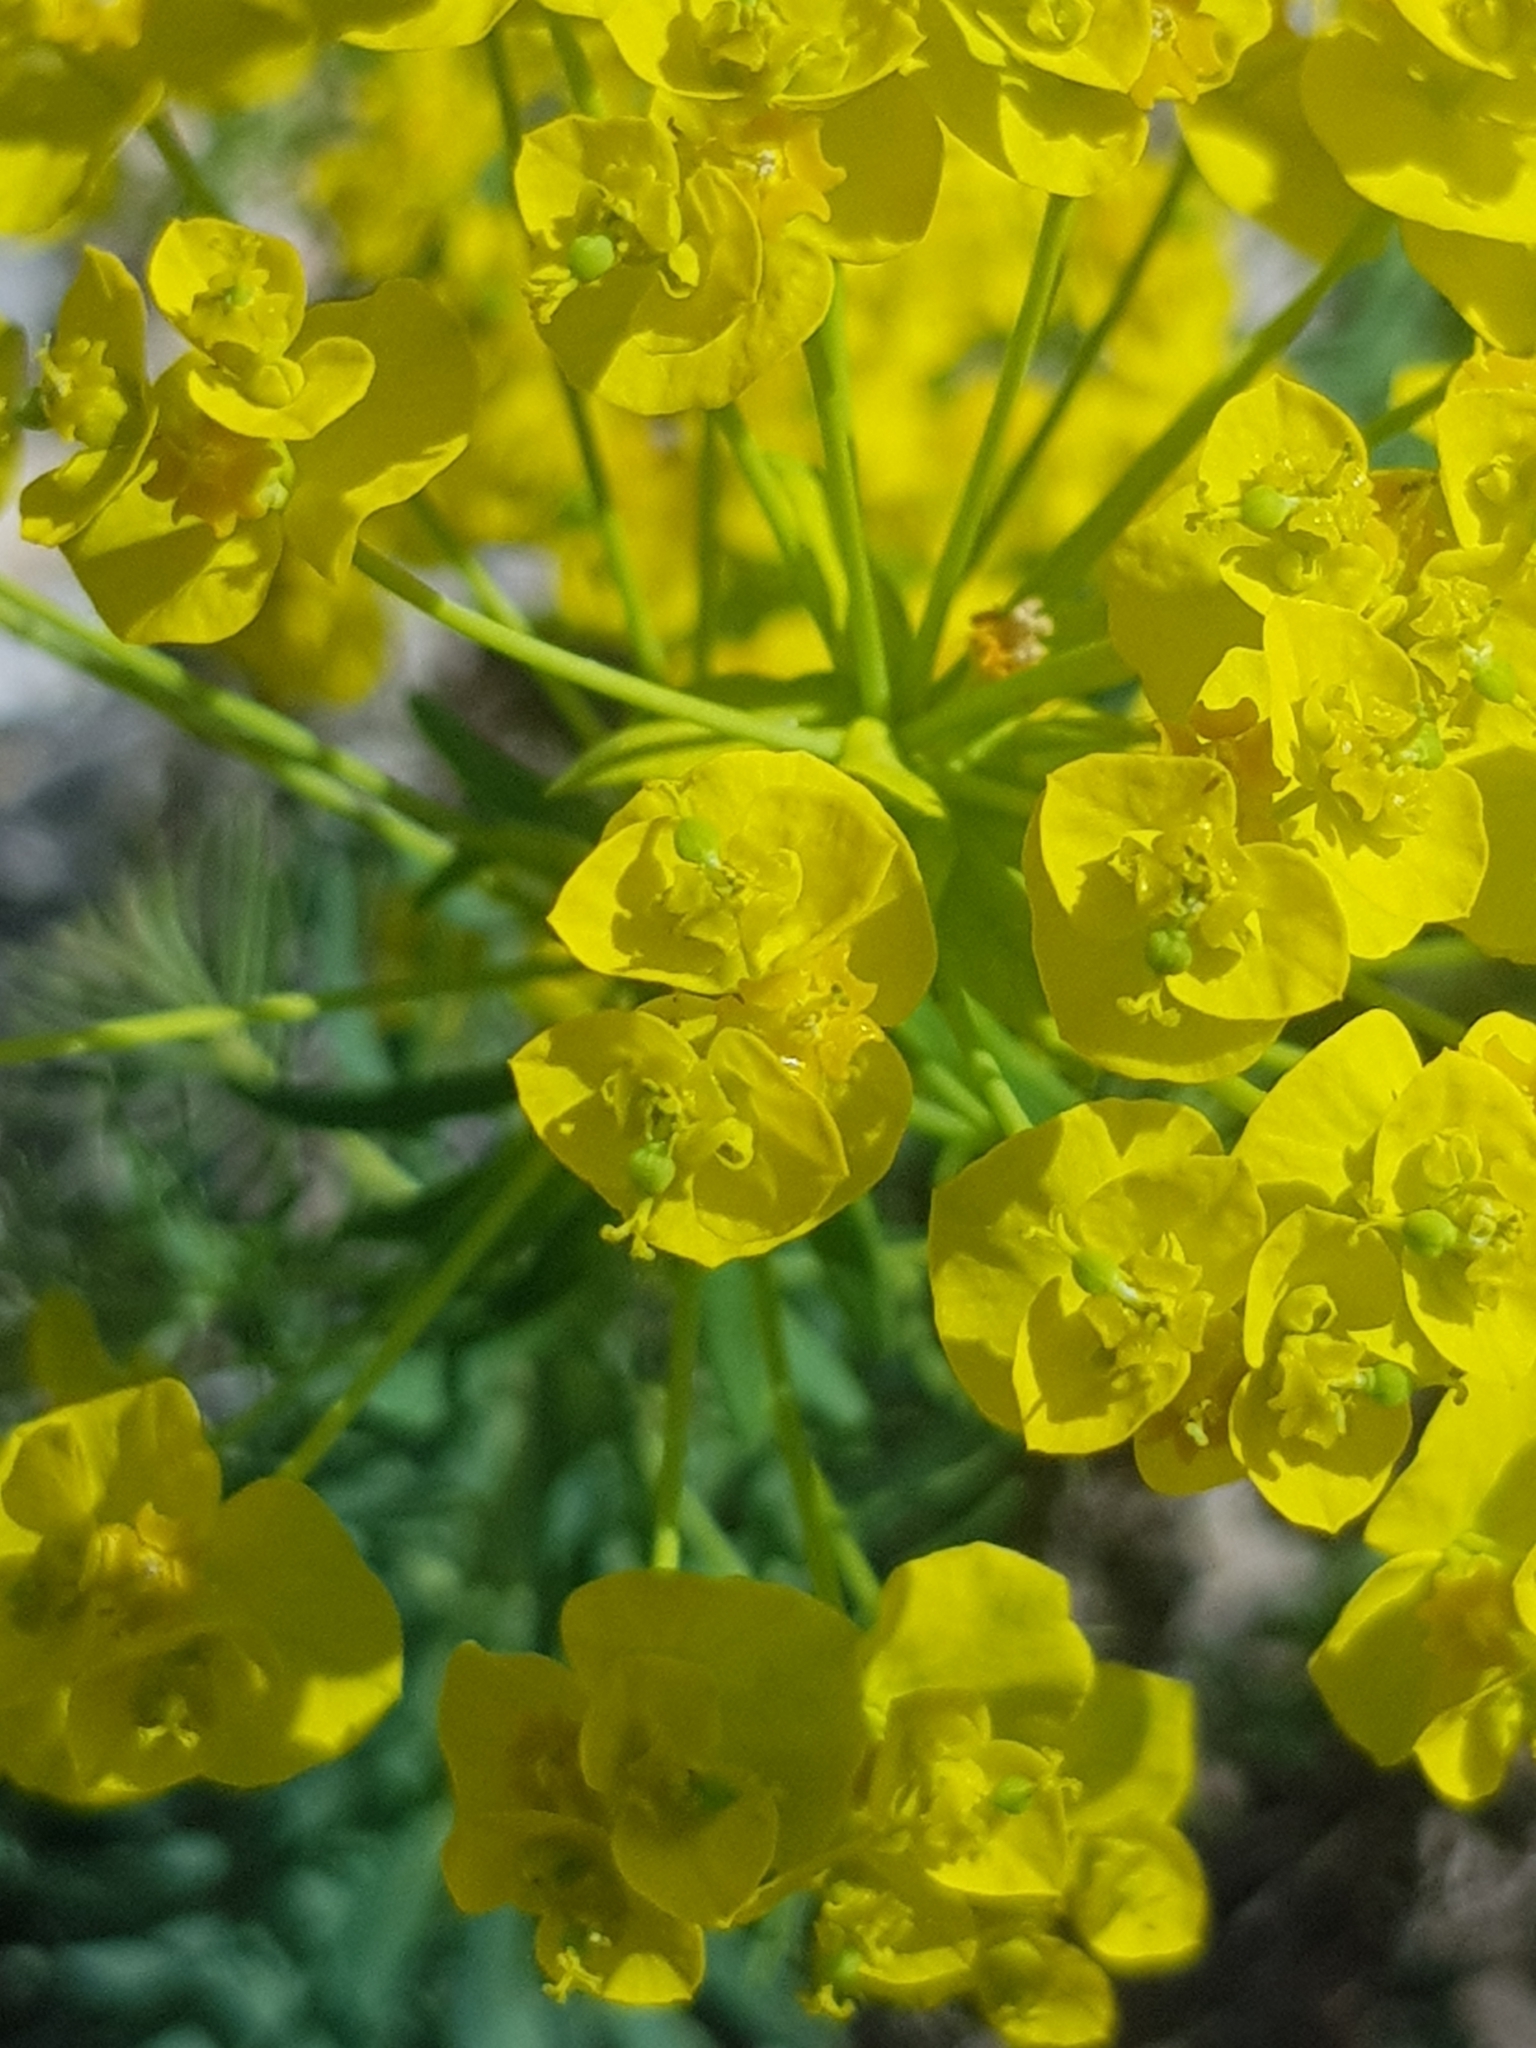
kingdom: Plantae
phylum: Tracheophyta
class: Magnoliopsida
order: Malpighiales
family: Euphorbiaceae
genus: Euphorbia
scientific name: Euphorbia cyparissias
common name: Cypress spurge
